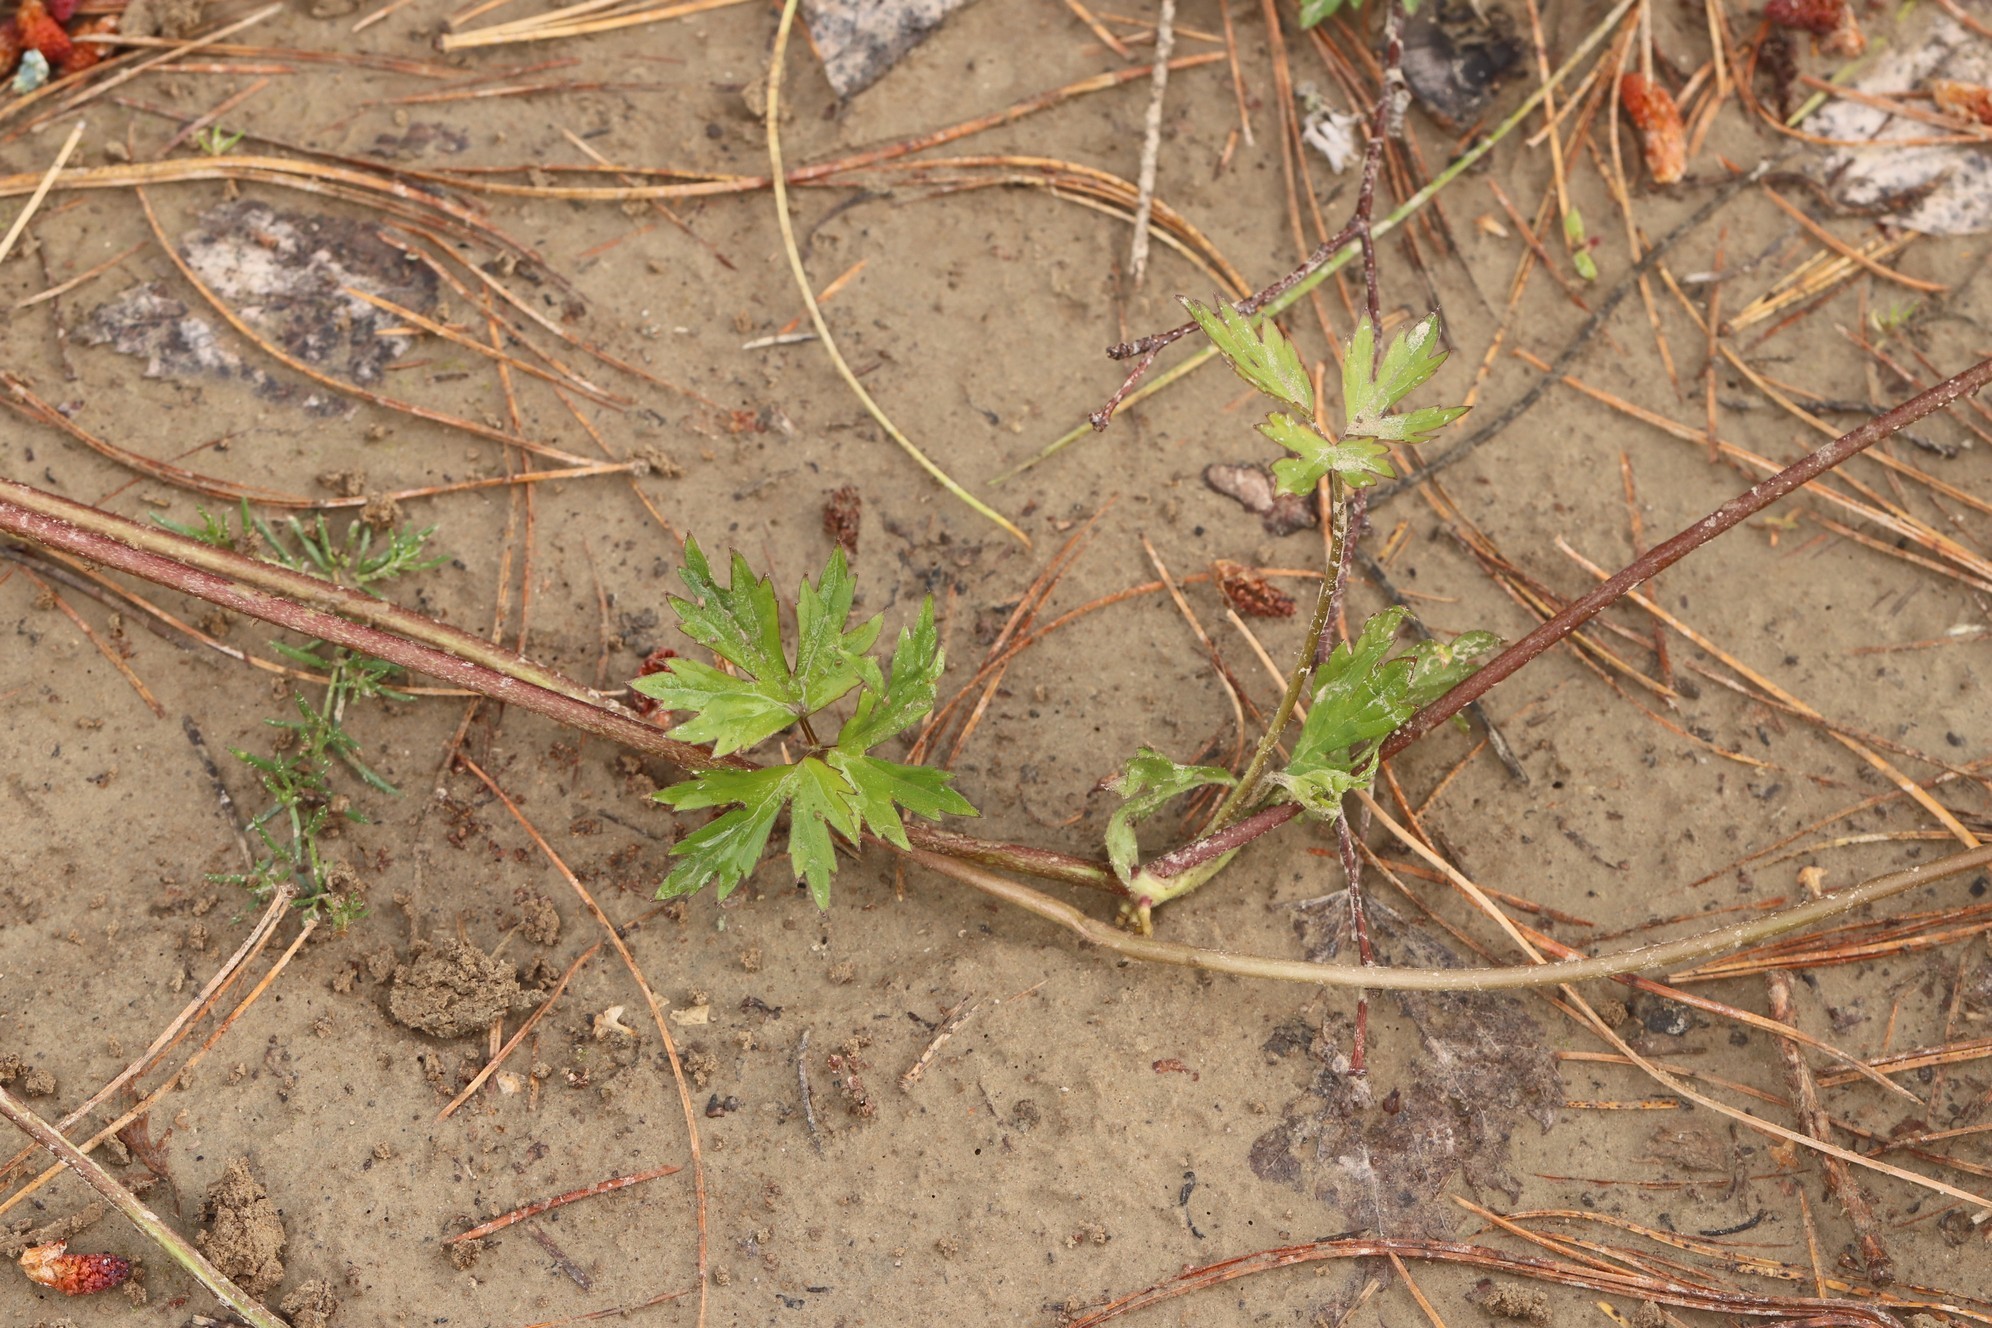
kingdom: Plantae
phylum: Tracheophyta
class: Magnoliopsida
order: Ranunculales
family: Ranunculaceae
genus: Ranunculus
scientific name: Ranunculus repens
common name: Creeping buttercup
